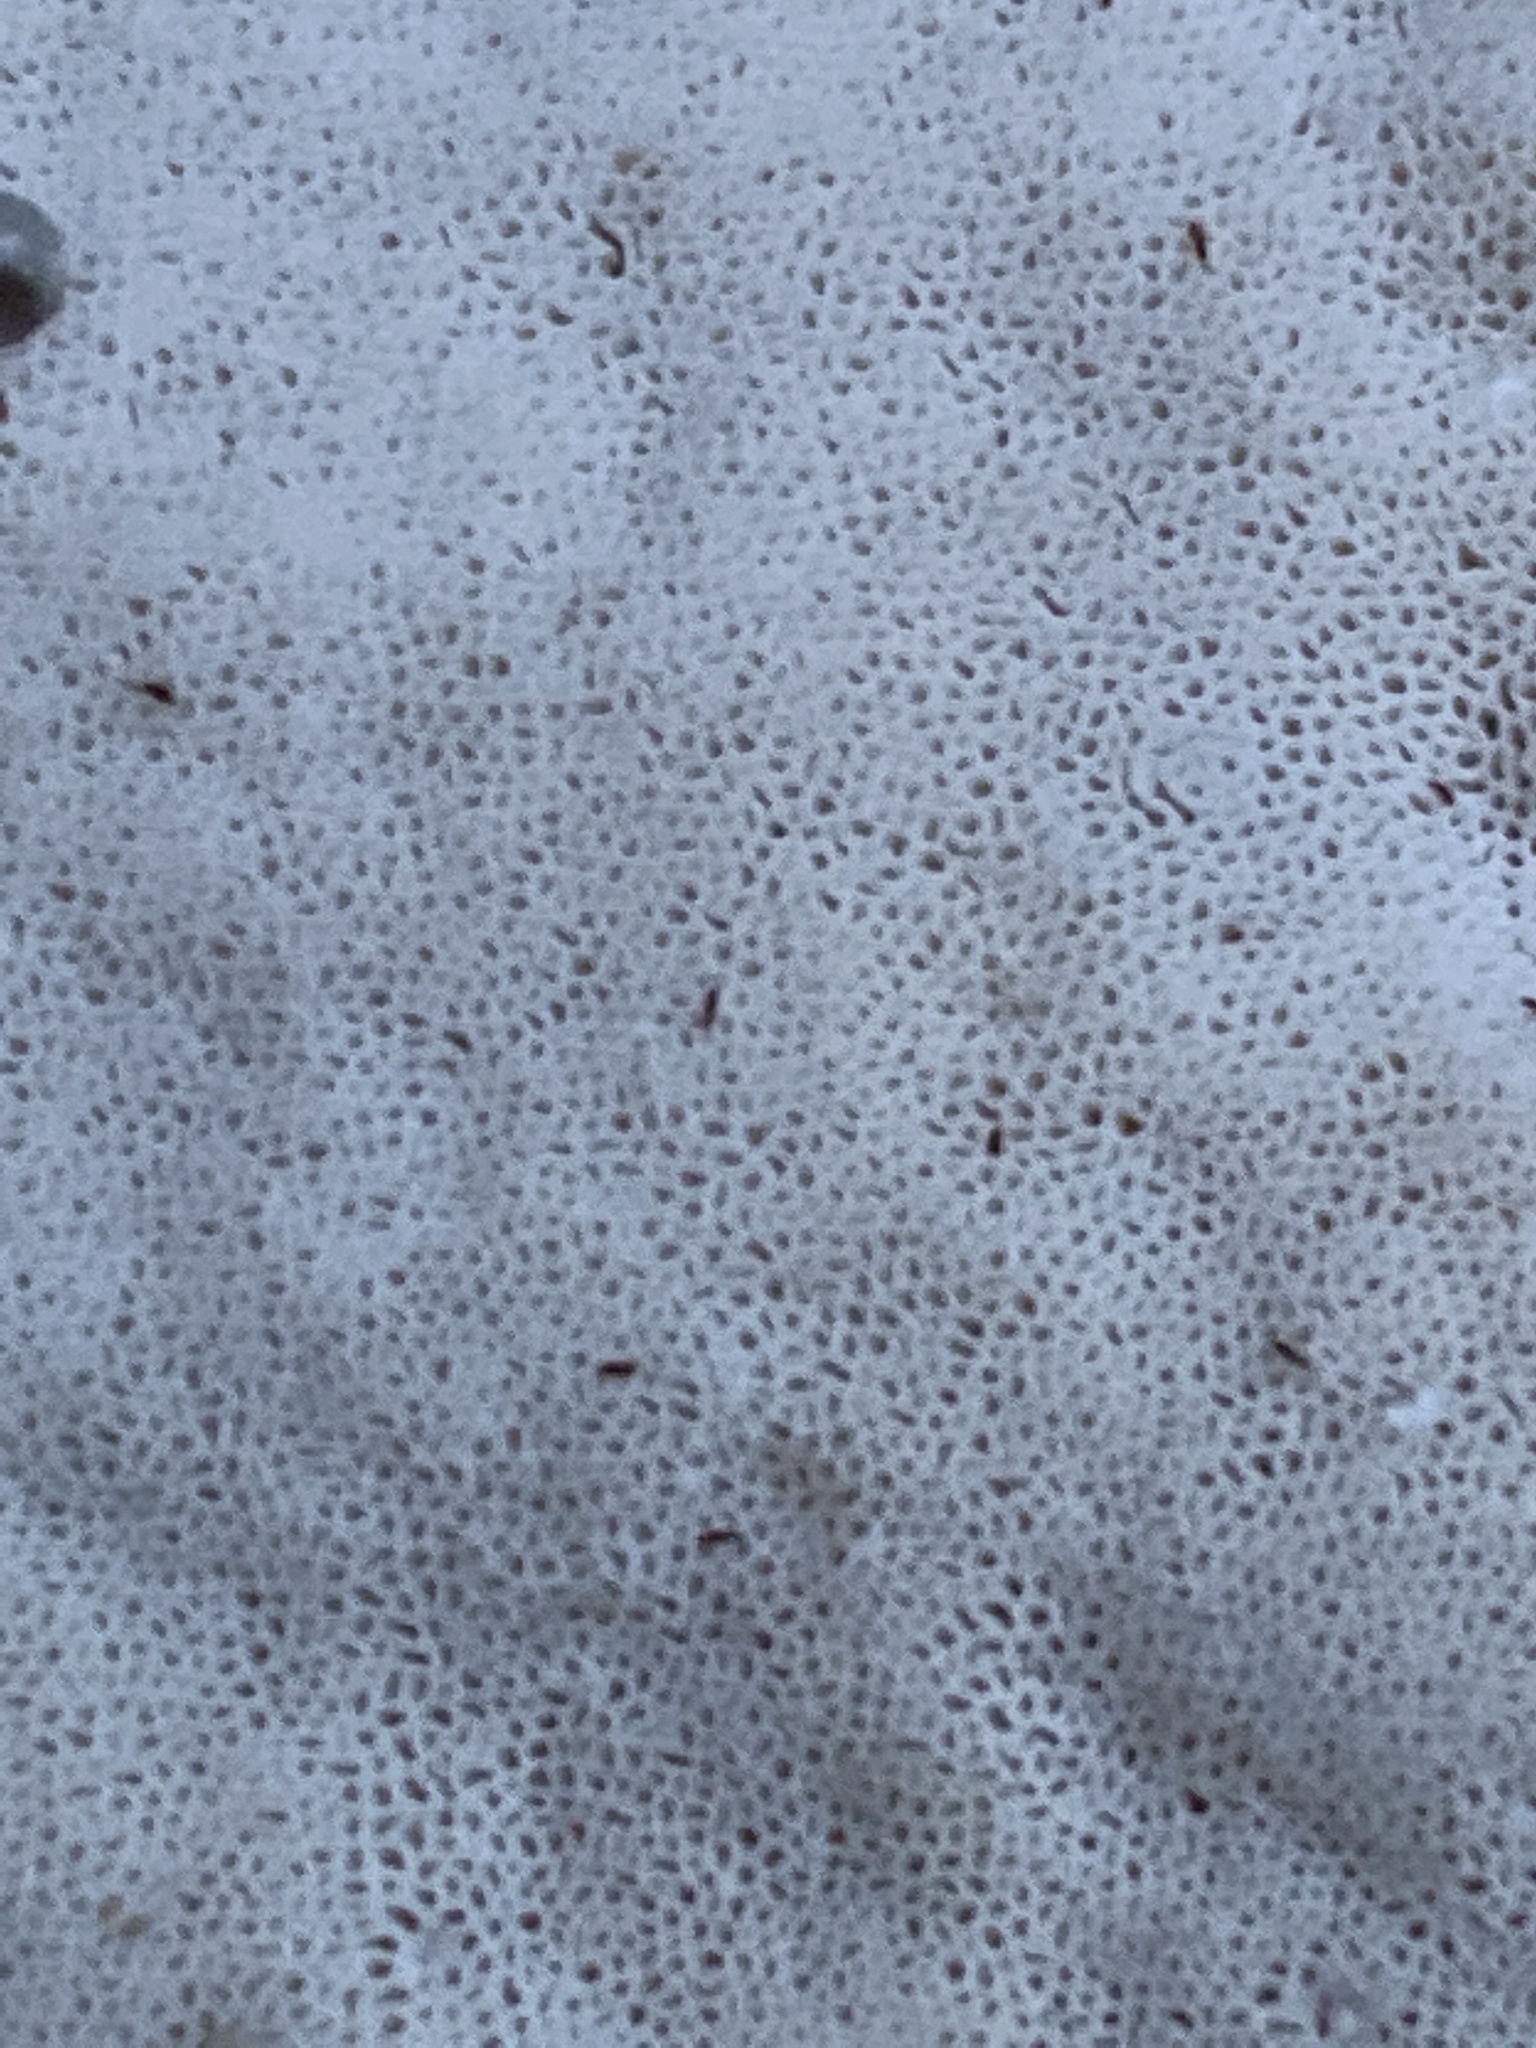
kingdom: Fungi
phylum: Basidiomycota
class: Agaricomycetes
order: Polyporales
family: Polyporaceae
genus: Trametes
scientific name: Trametes lactinea
